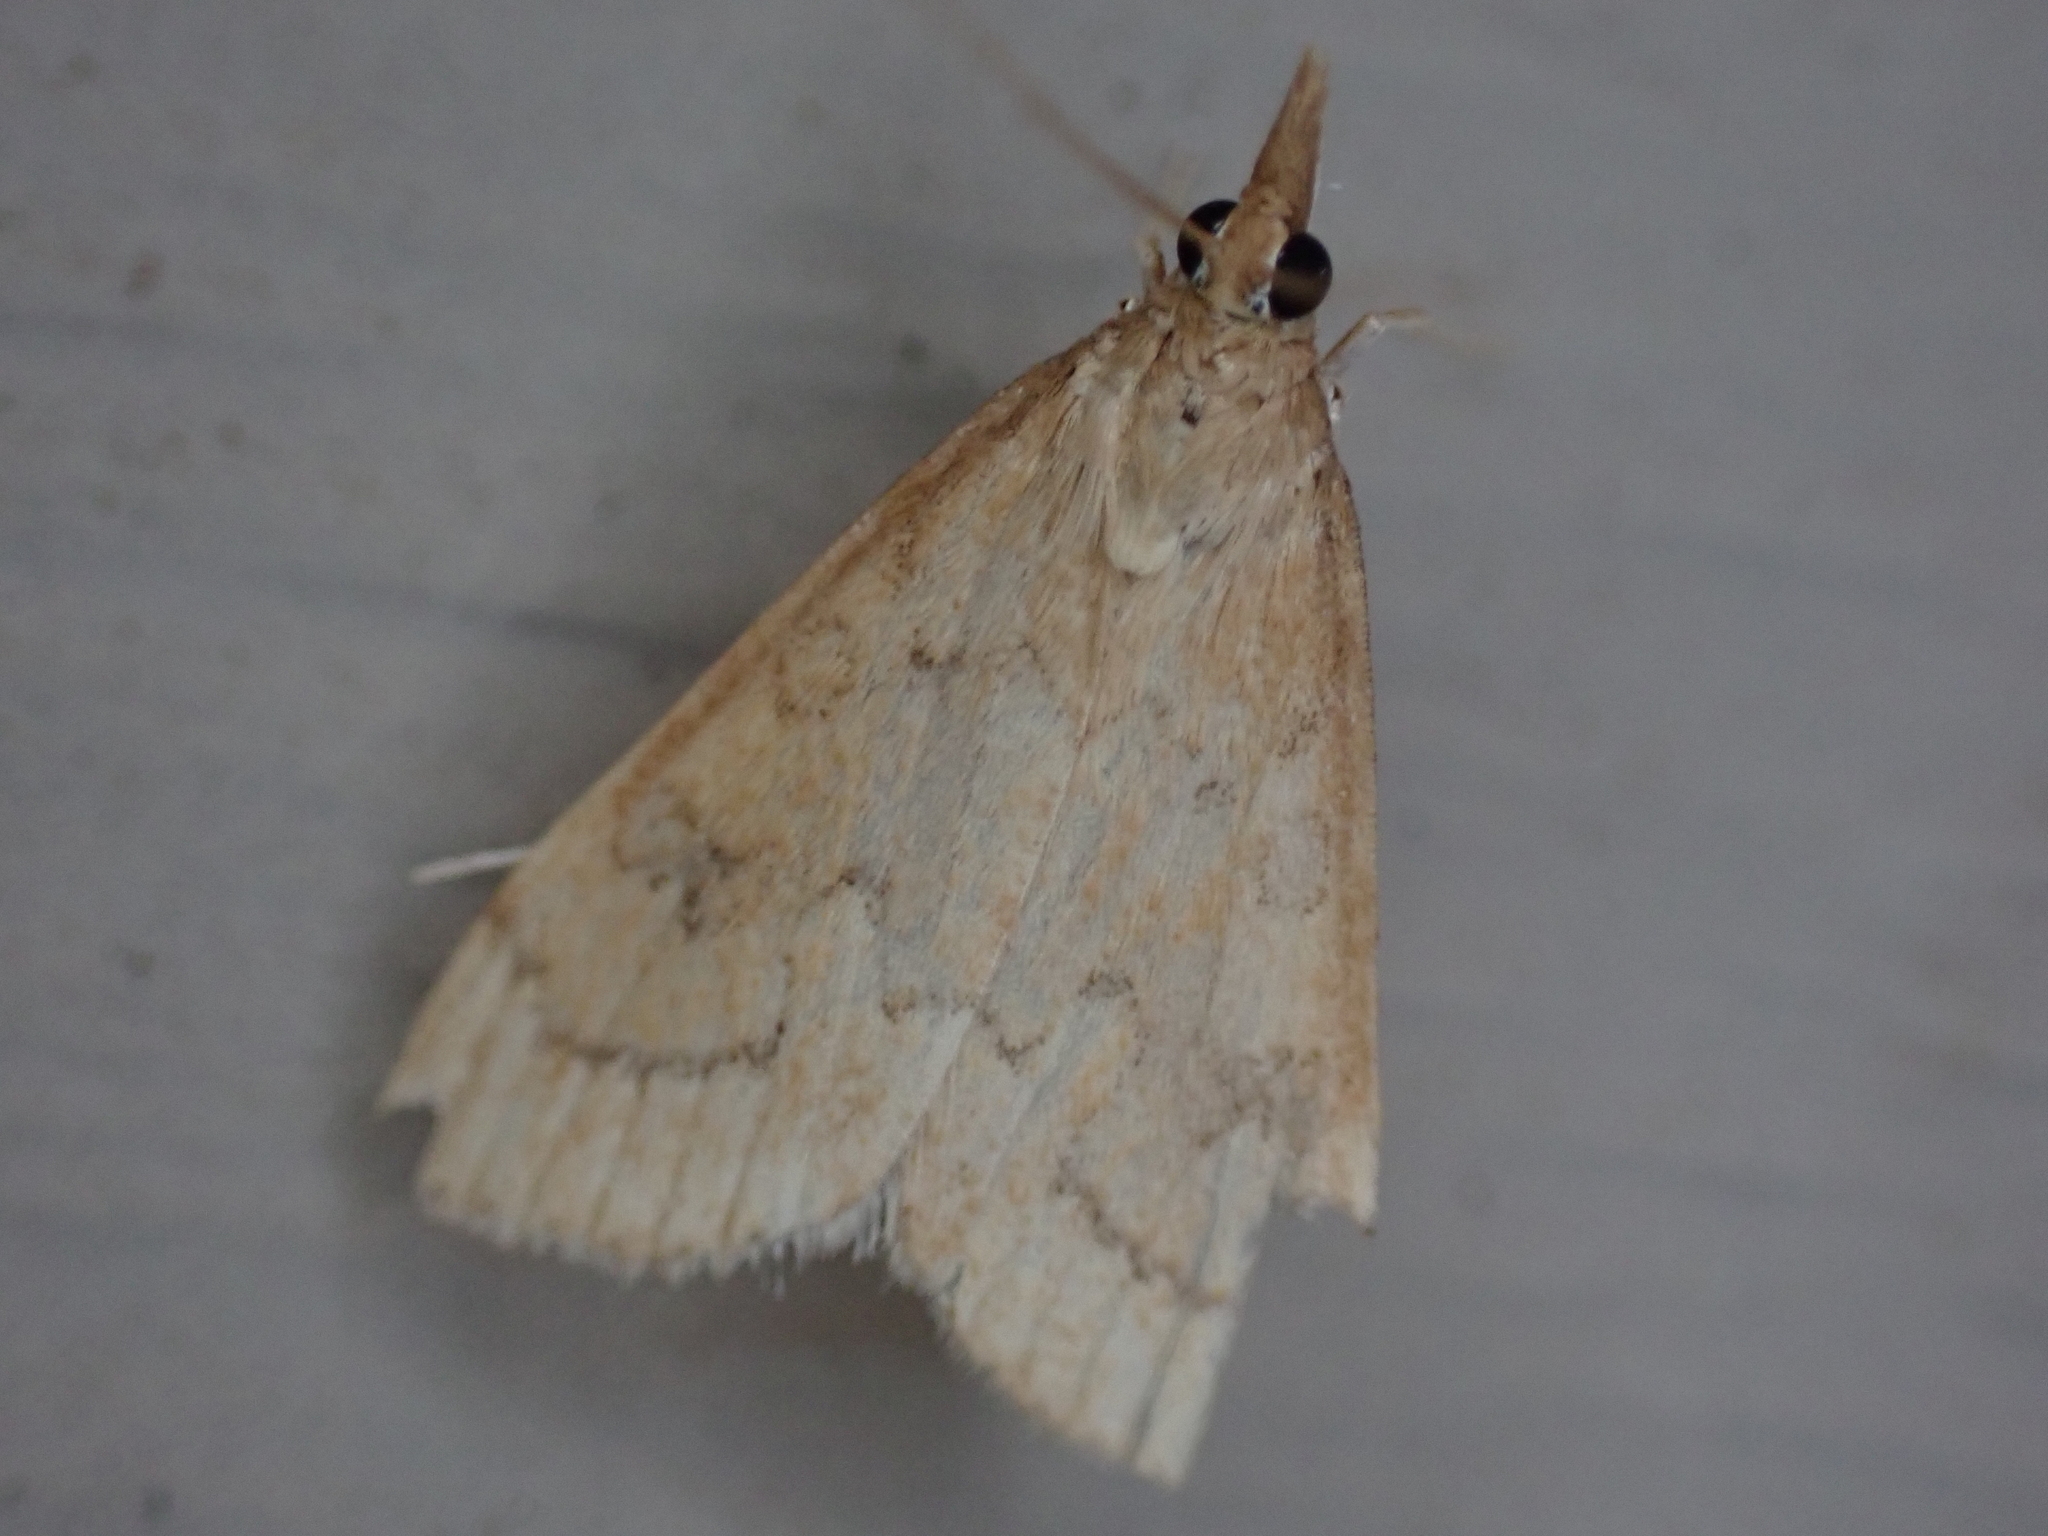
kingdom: Animalia
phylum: Arthropoda
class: Insecta
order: Lepidoptera
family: Crambidae
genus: Udea
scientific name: Udea rubigalis
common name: Celery leaftier moth
